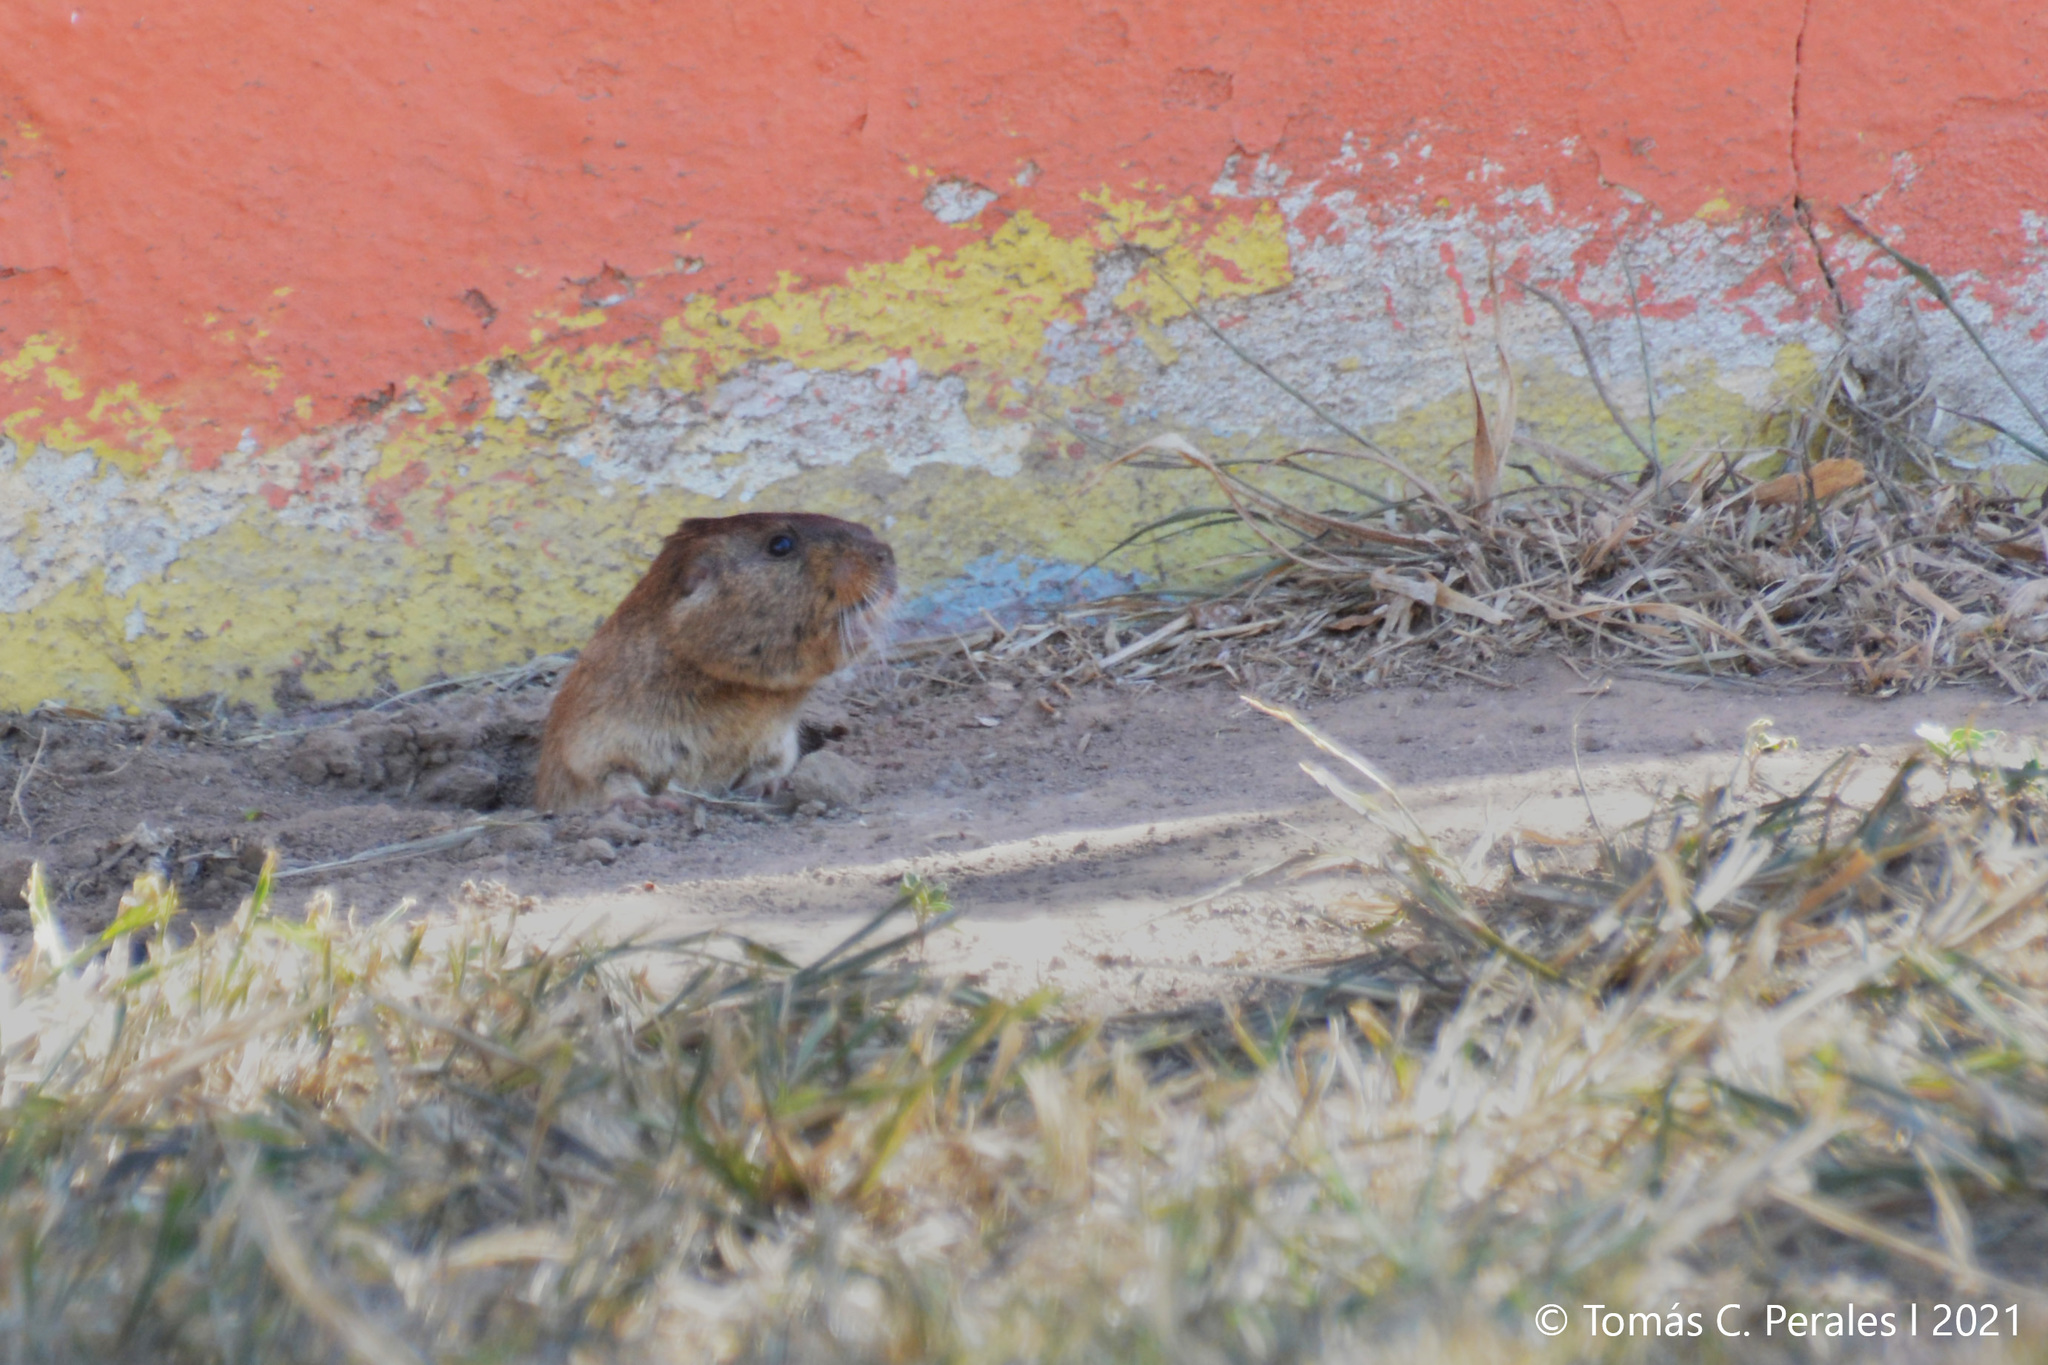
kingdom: Animalia
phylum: Chordata
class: Mammalia
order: Rodentia
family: Ctenomyidae
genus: Ctenomys
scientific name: Ctenomys rosendopascuali
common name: Rosendo pascual’s tuco-tuco
